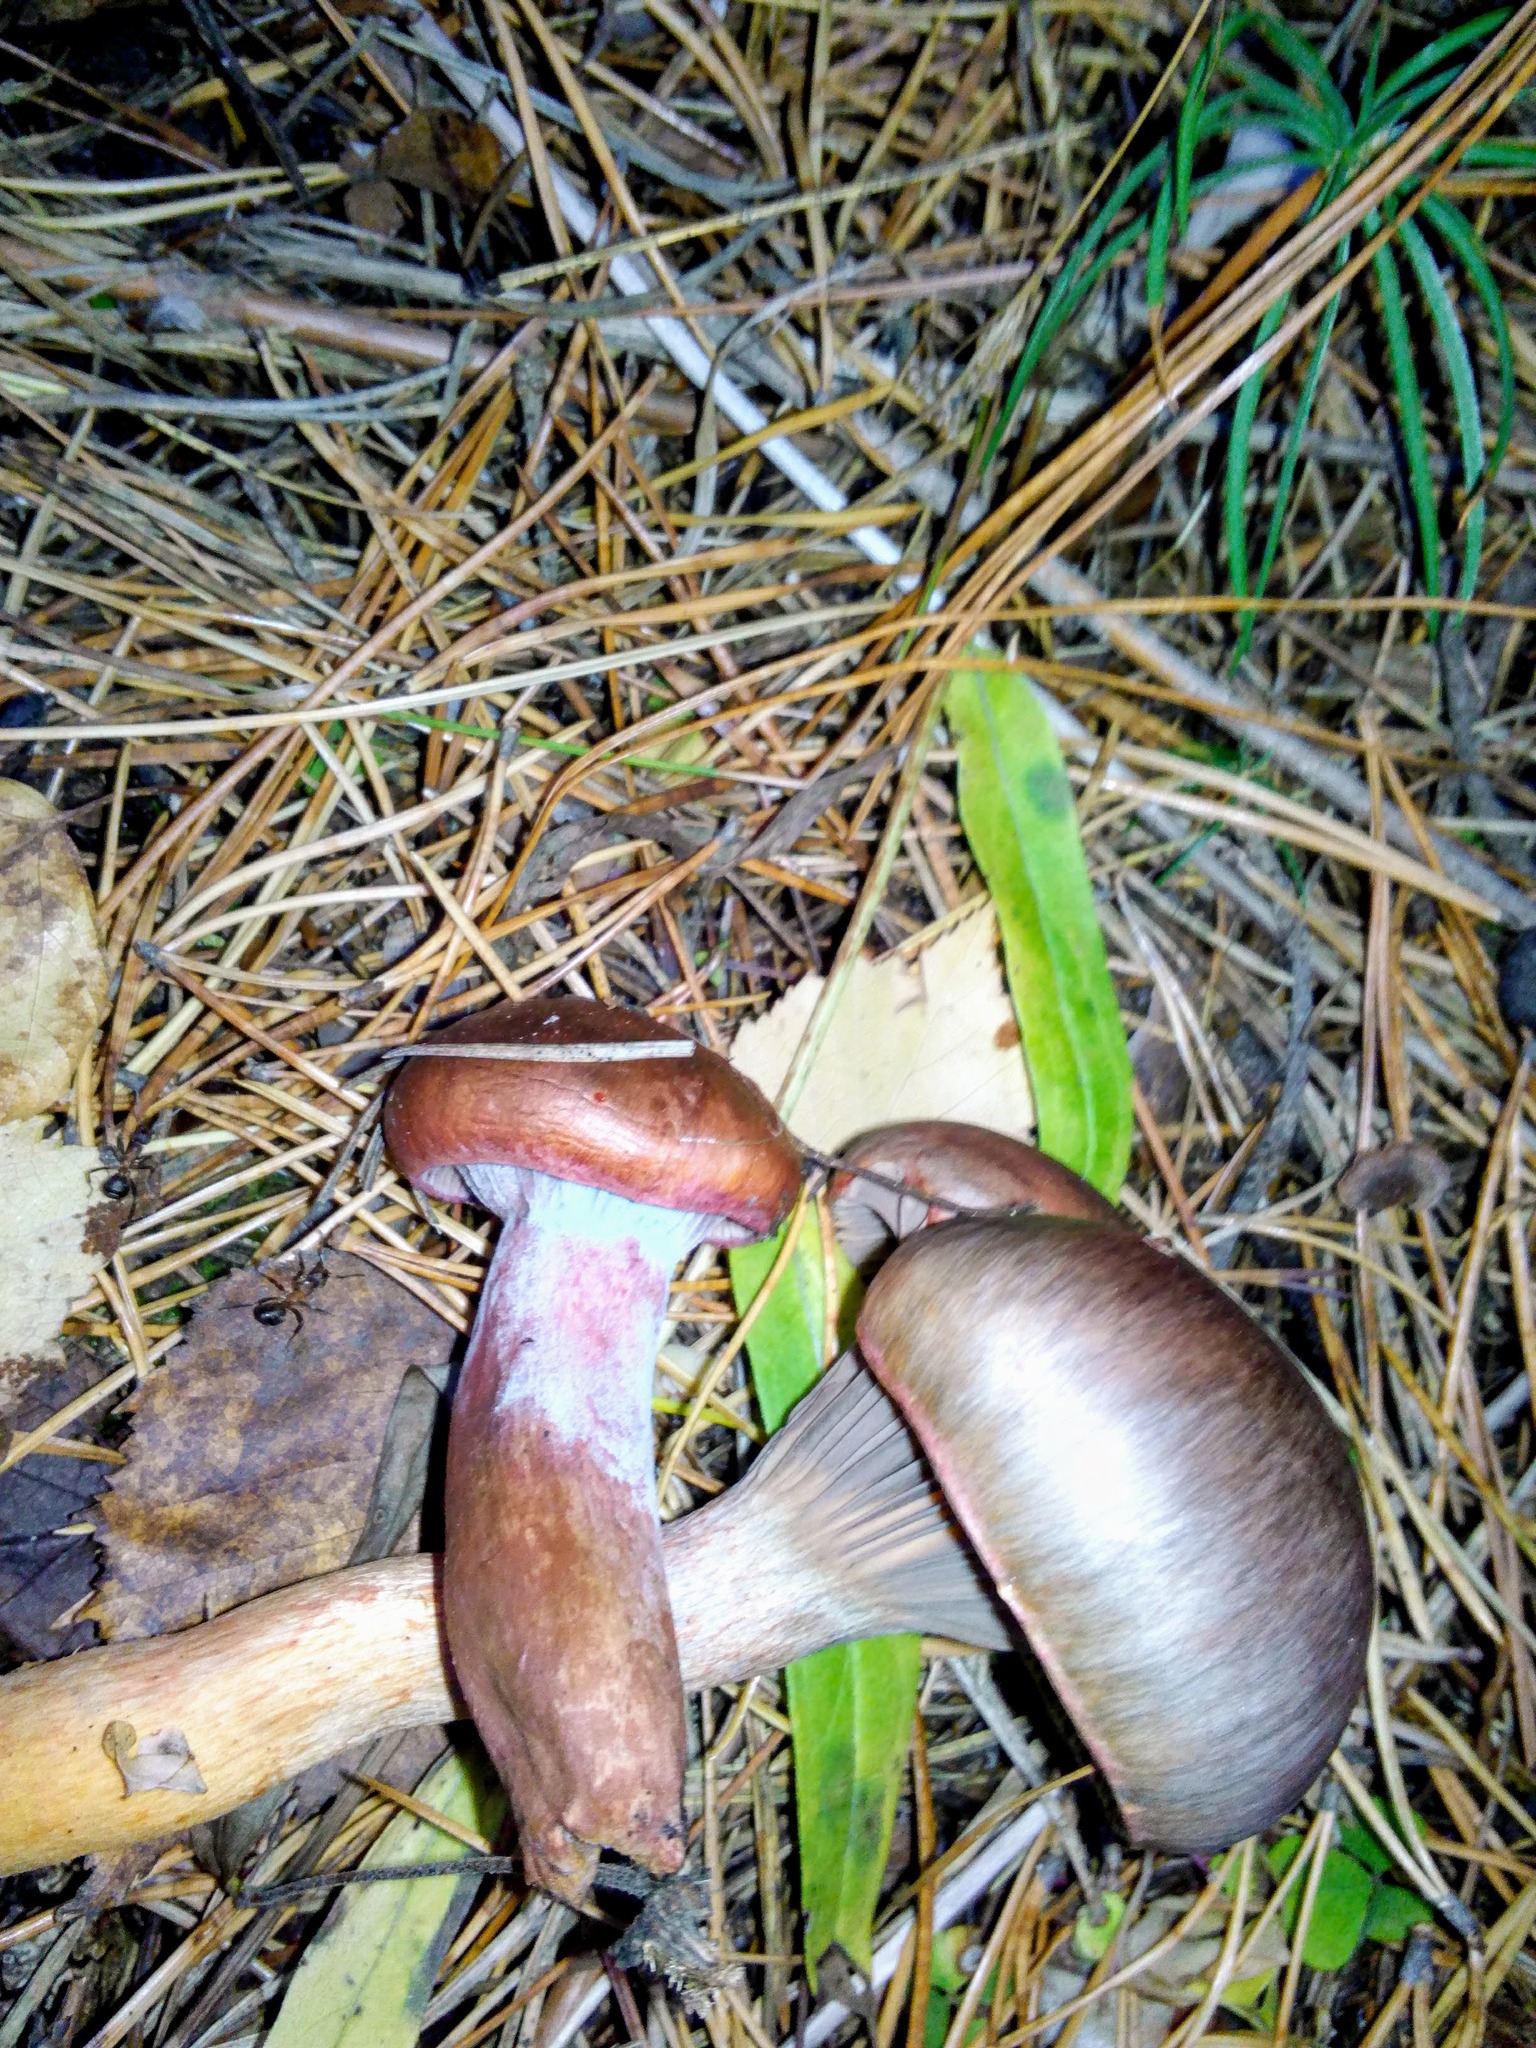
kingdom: Fungi
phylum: Basidiomycota
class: Agaricomycetes
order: Boletales
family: Gomphidiaceae
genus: Chroogomphus
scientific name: Chroogomphus rutilus
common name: Copper spike
